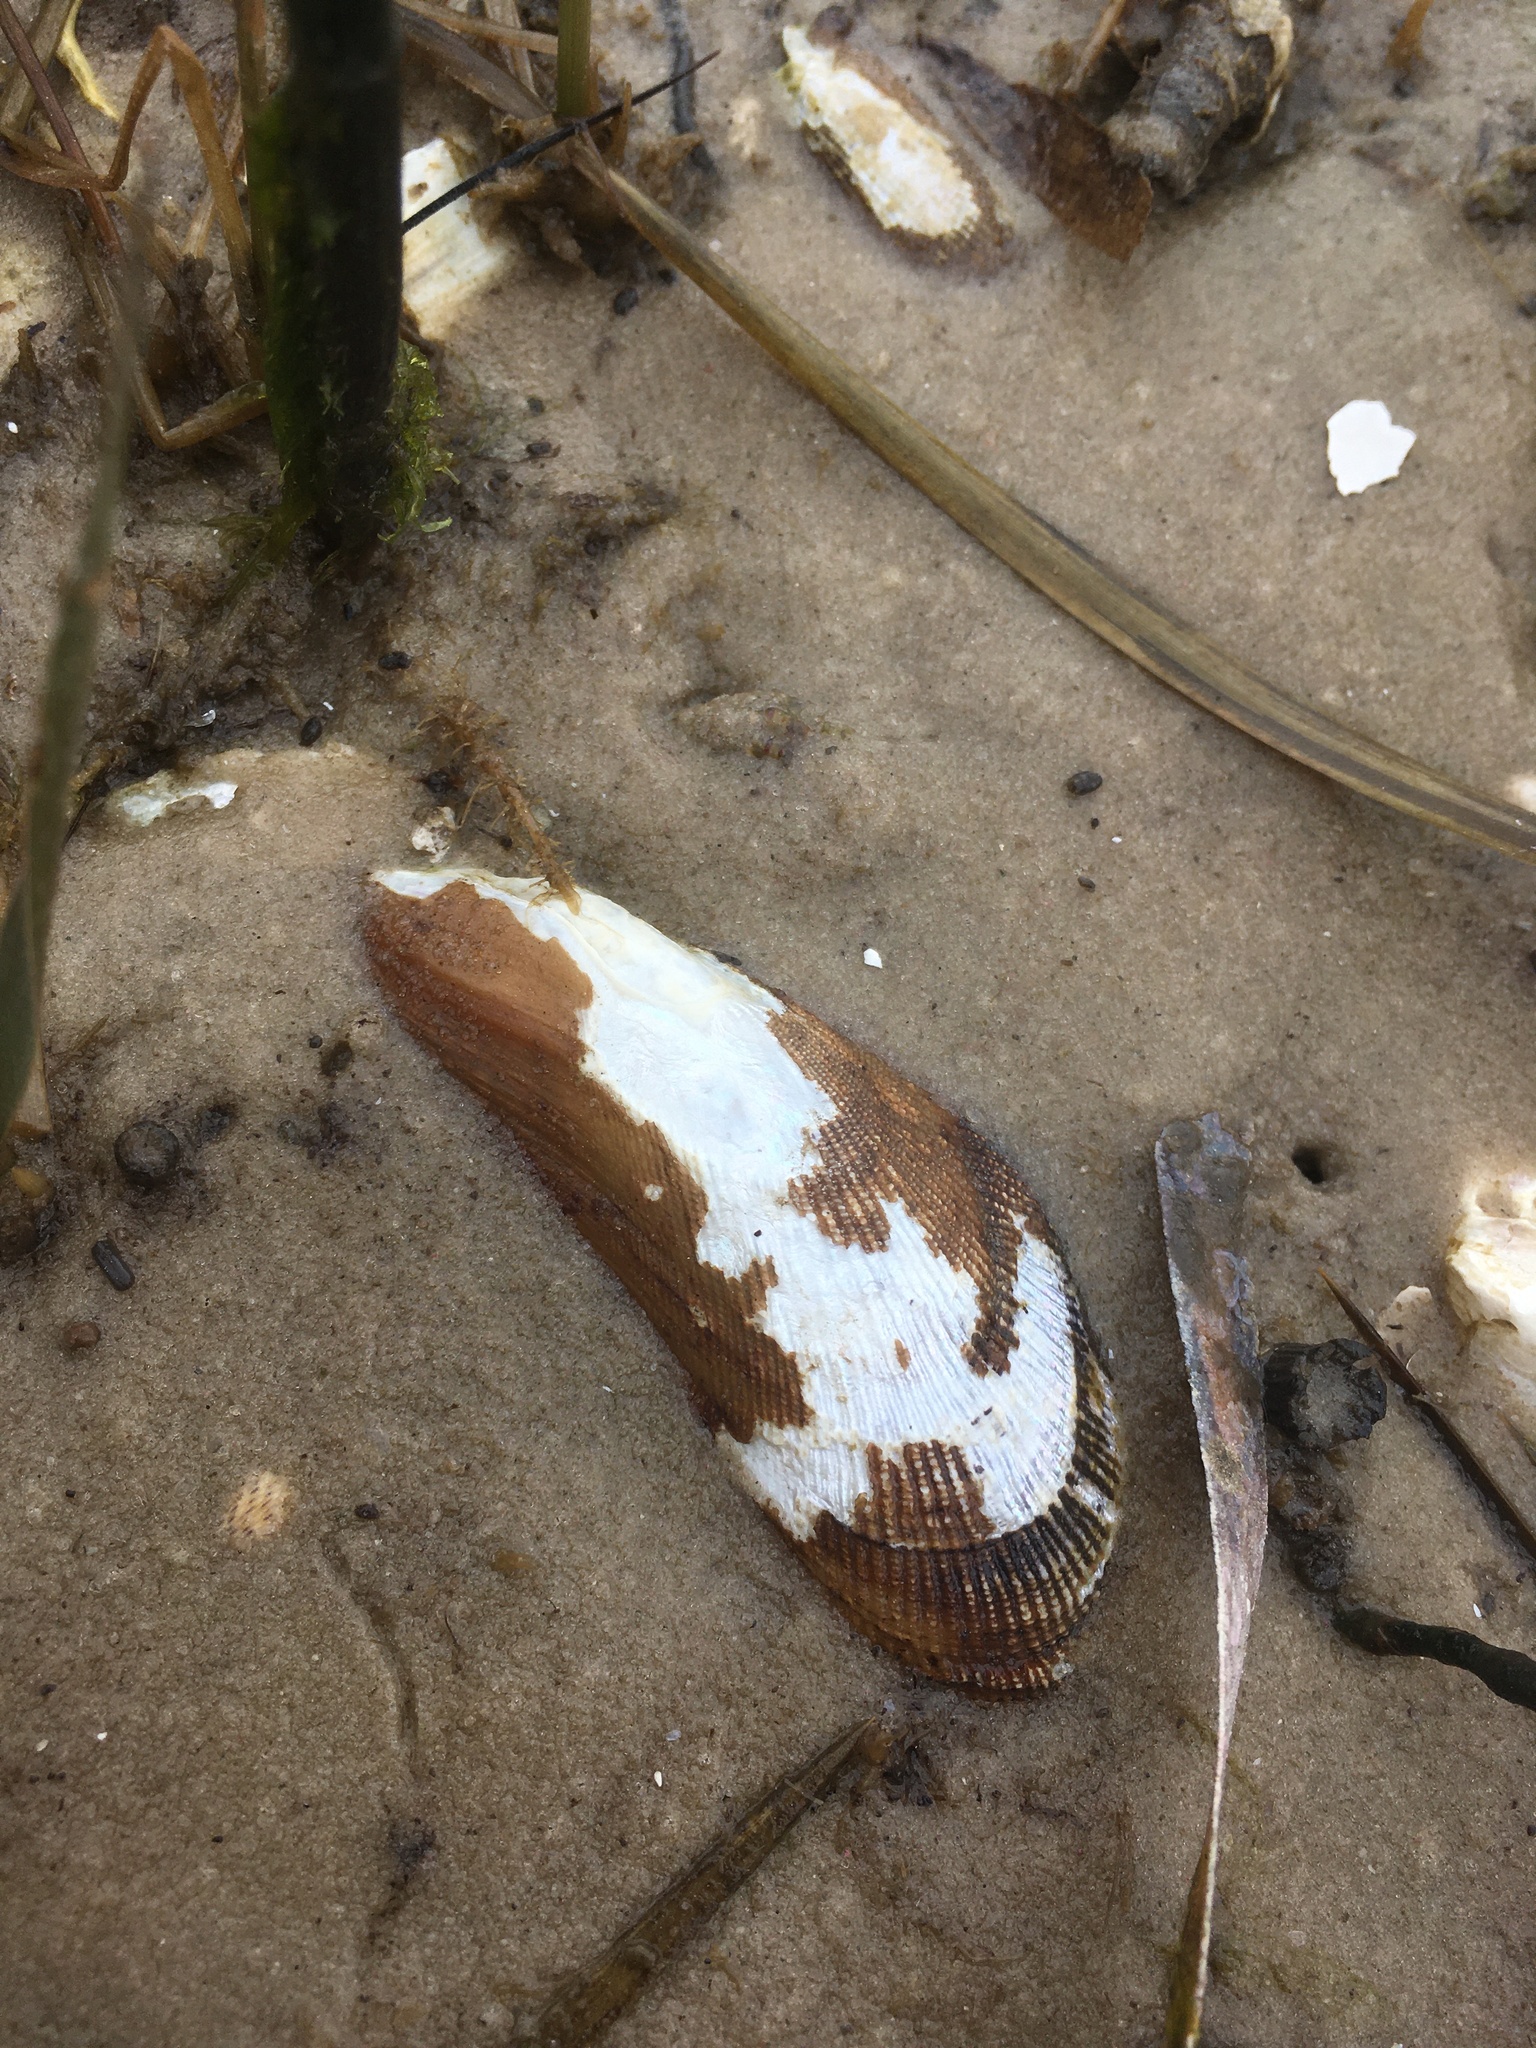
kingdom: Animalia
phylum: Mollusca
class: Bivalvia
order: Mytilida
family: Mytilidae
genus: Geukensia
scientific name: Geukensia granosissima
